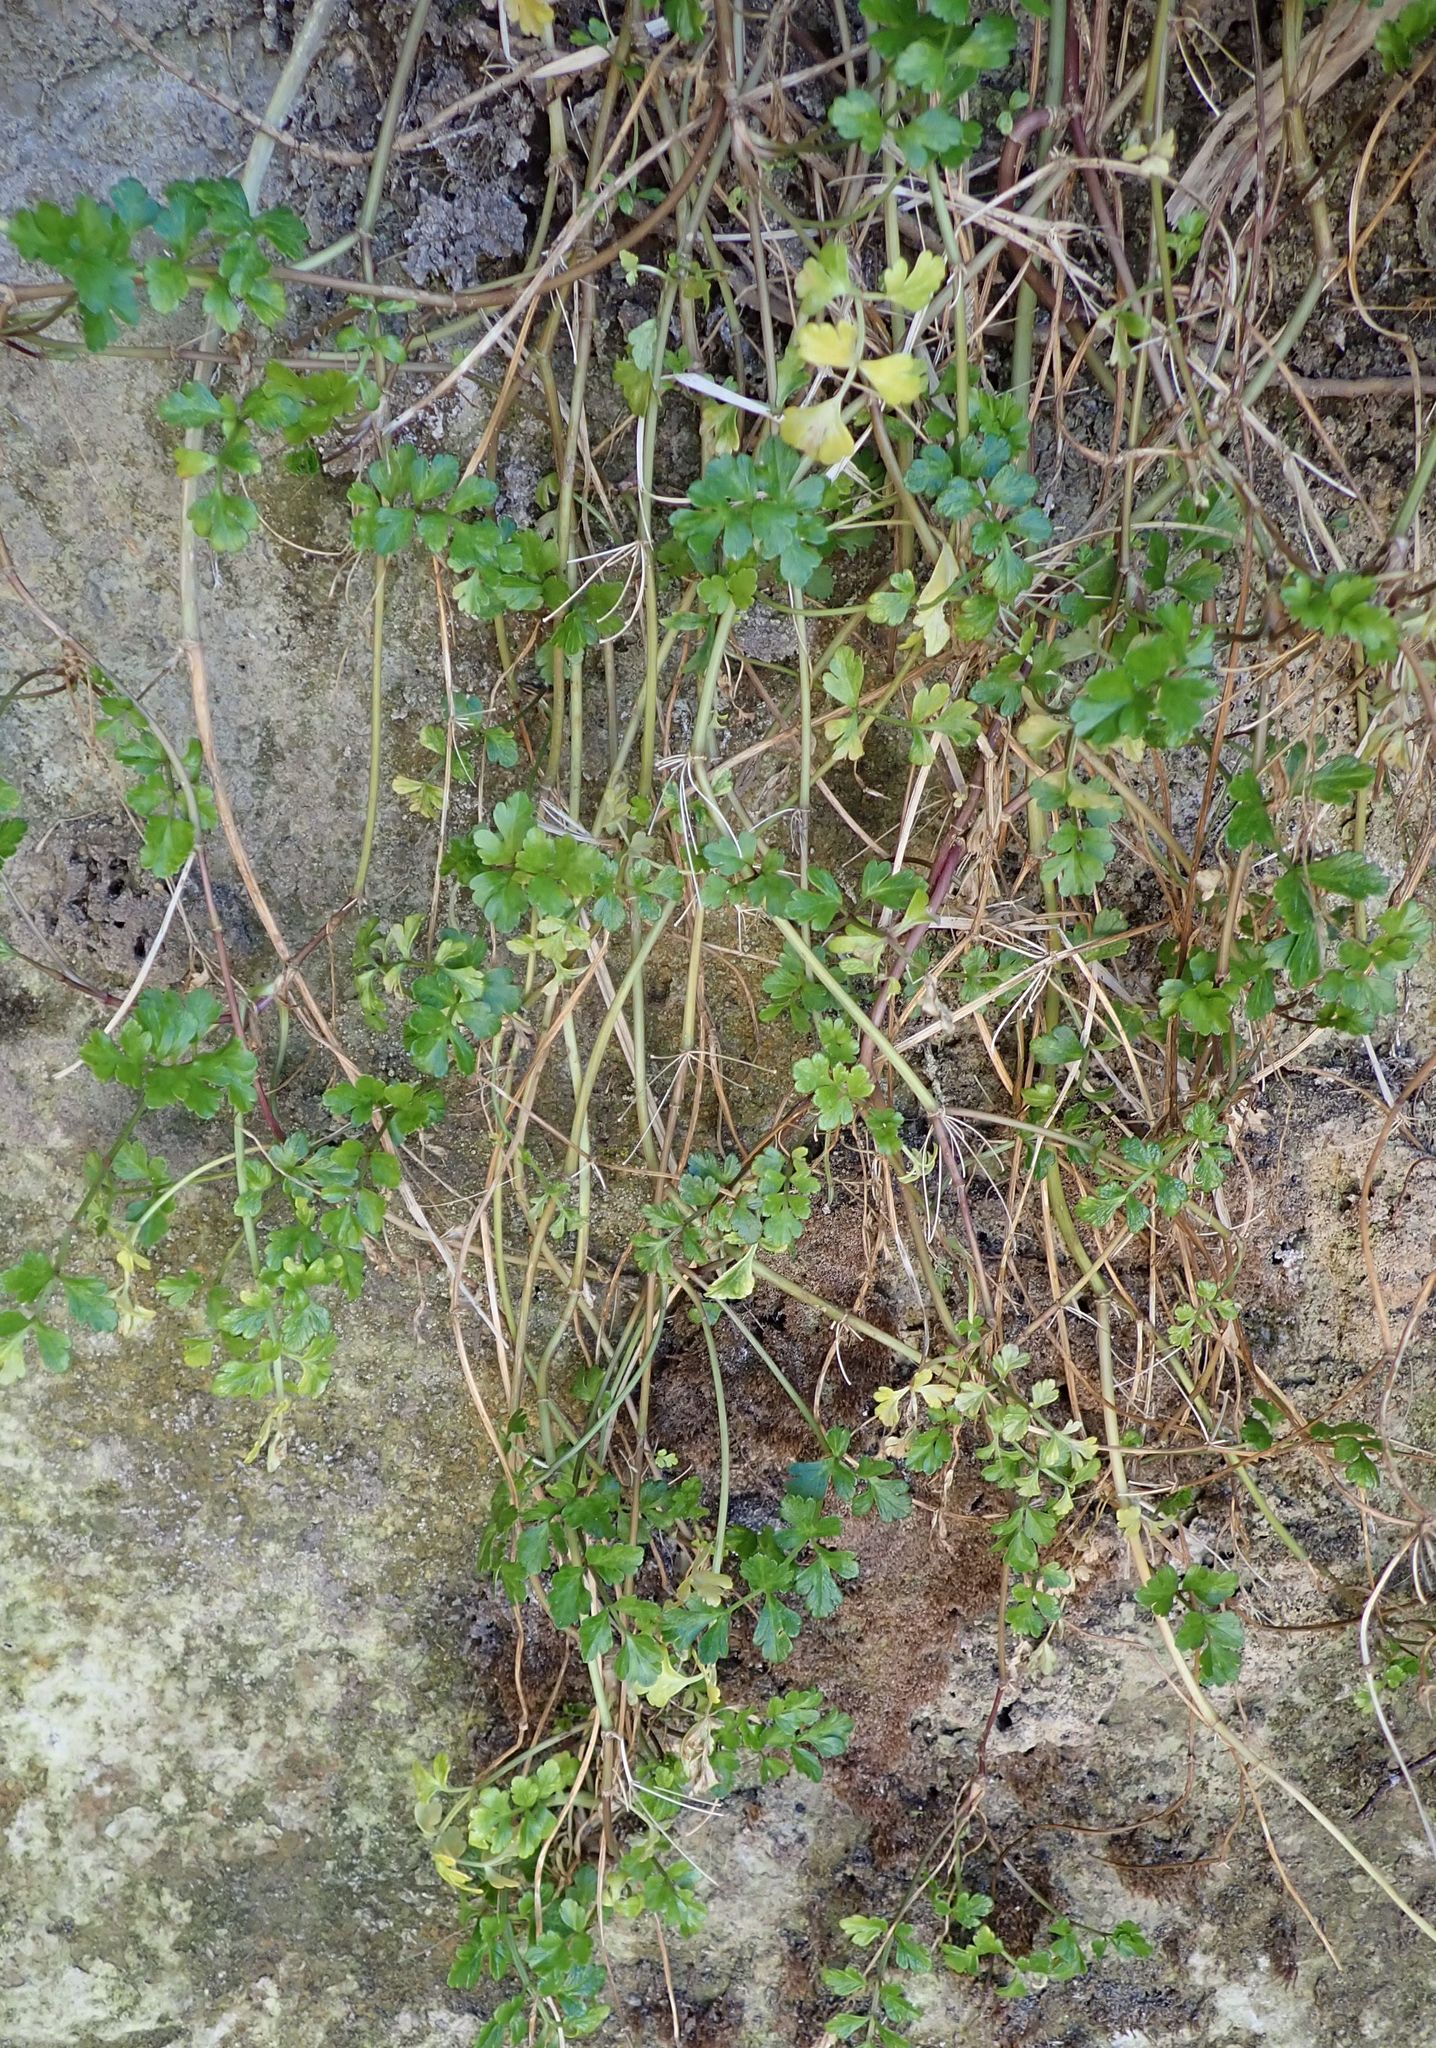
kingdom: Plantae
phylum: Tracheophyta
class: Magnoliopsida
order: Apiales
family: Apiaceae
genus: Apium
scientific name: Apium prostratum
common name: Prostrate marshwort
